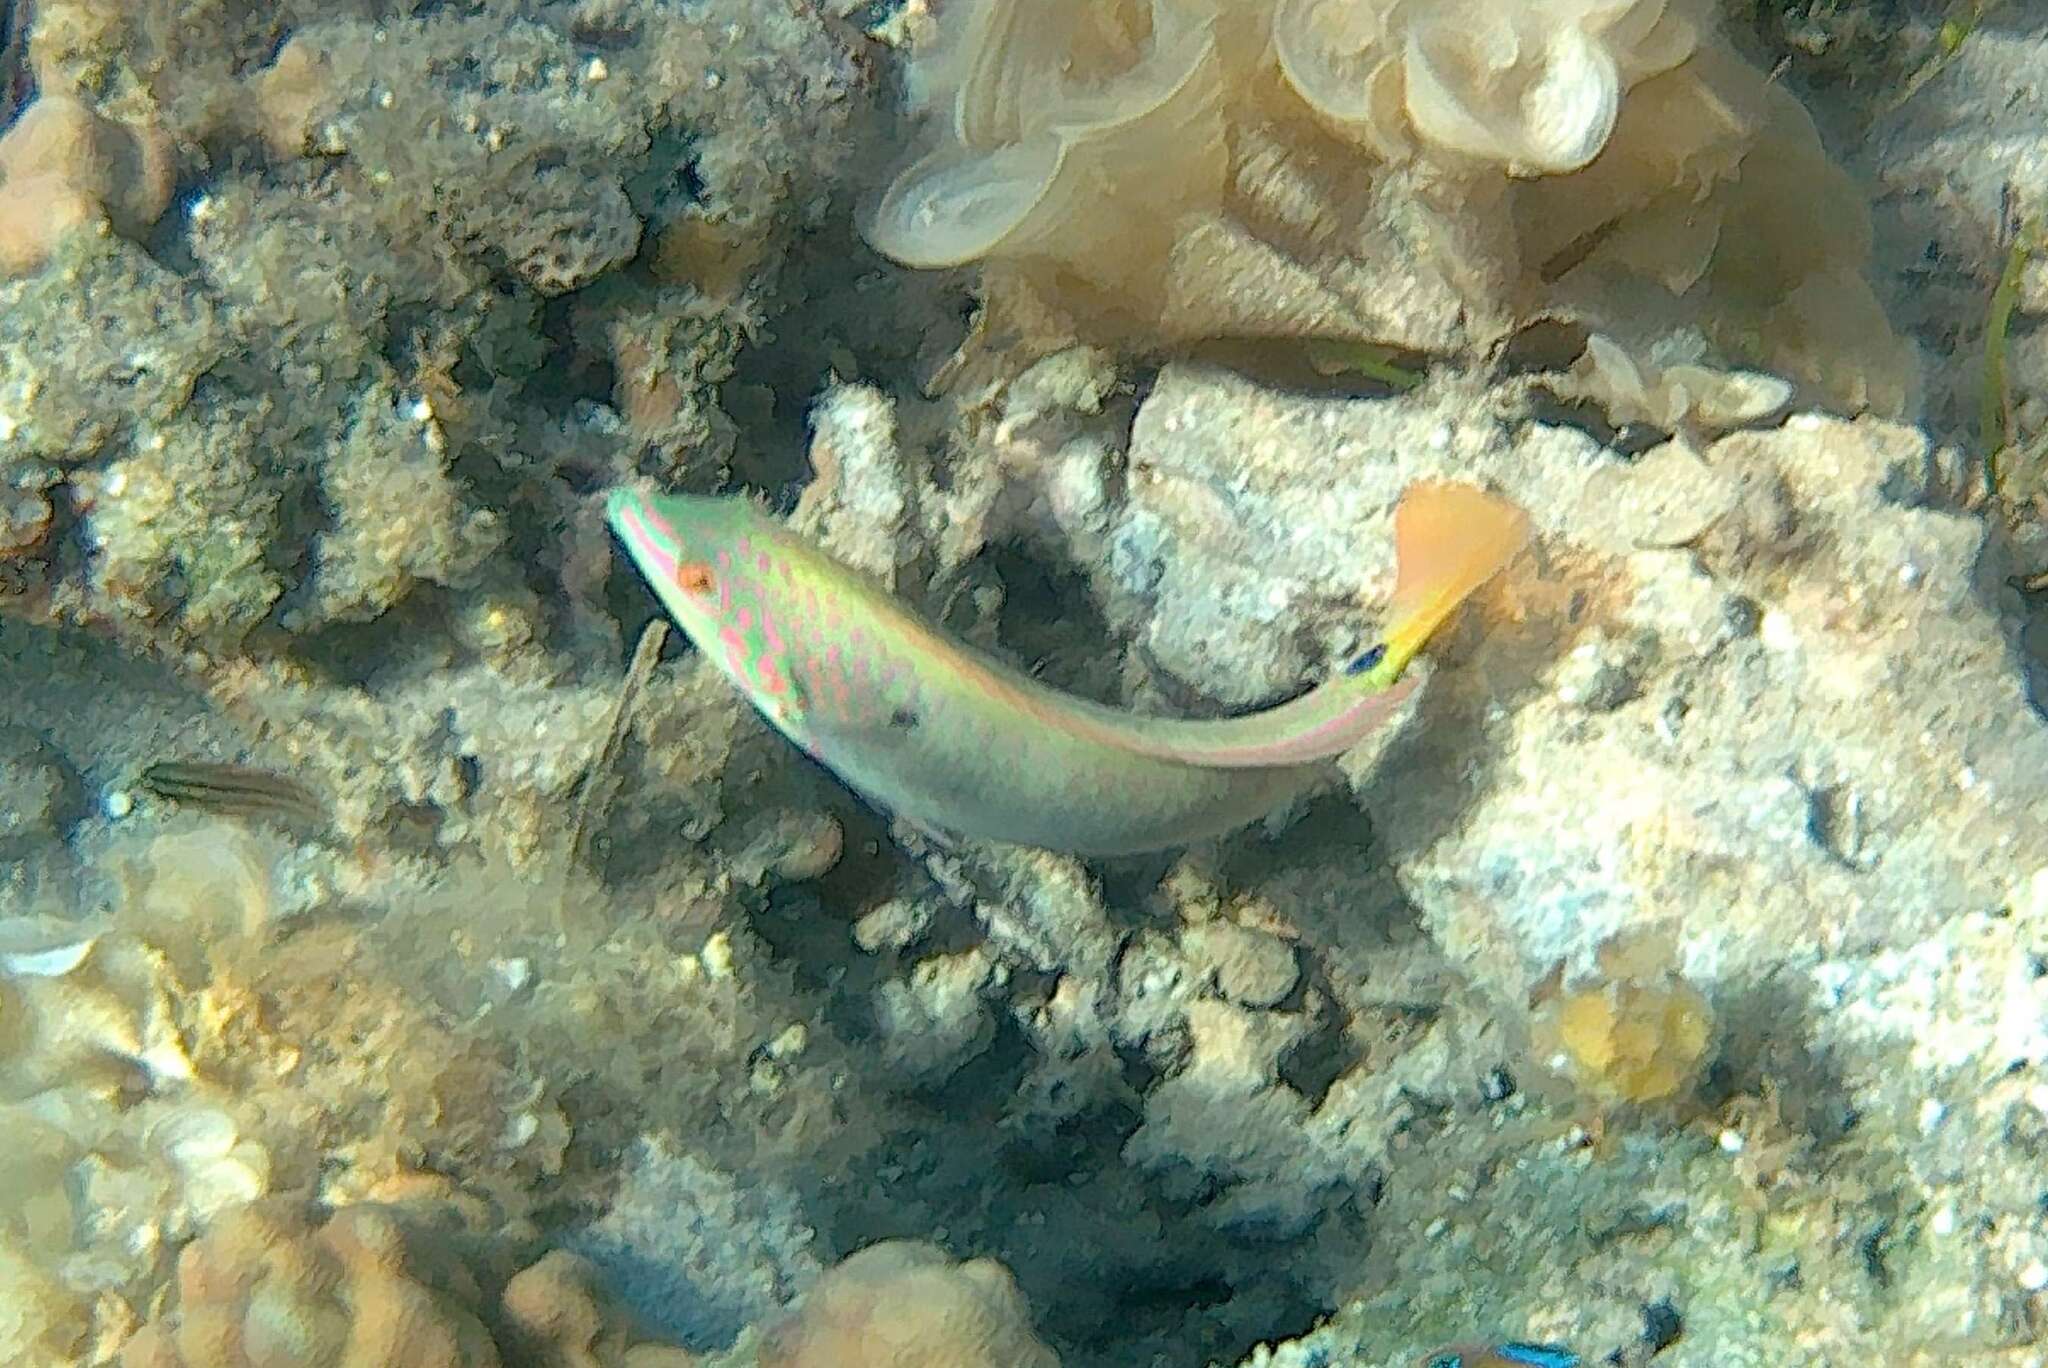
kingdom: Animalia
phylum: Chordata
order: Perciformes
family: Labridae
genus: Halichoeres
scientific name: Halichoeres trimaculatus
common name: Three-spot wrasse
